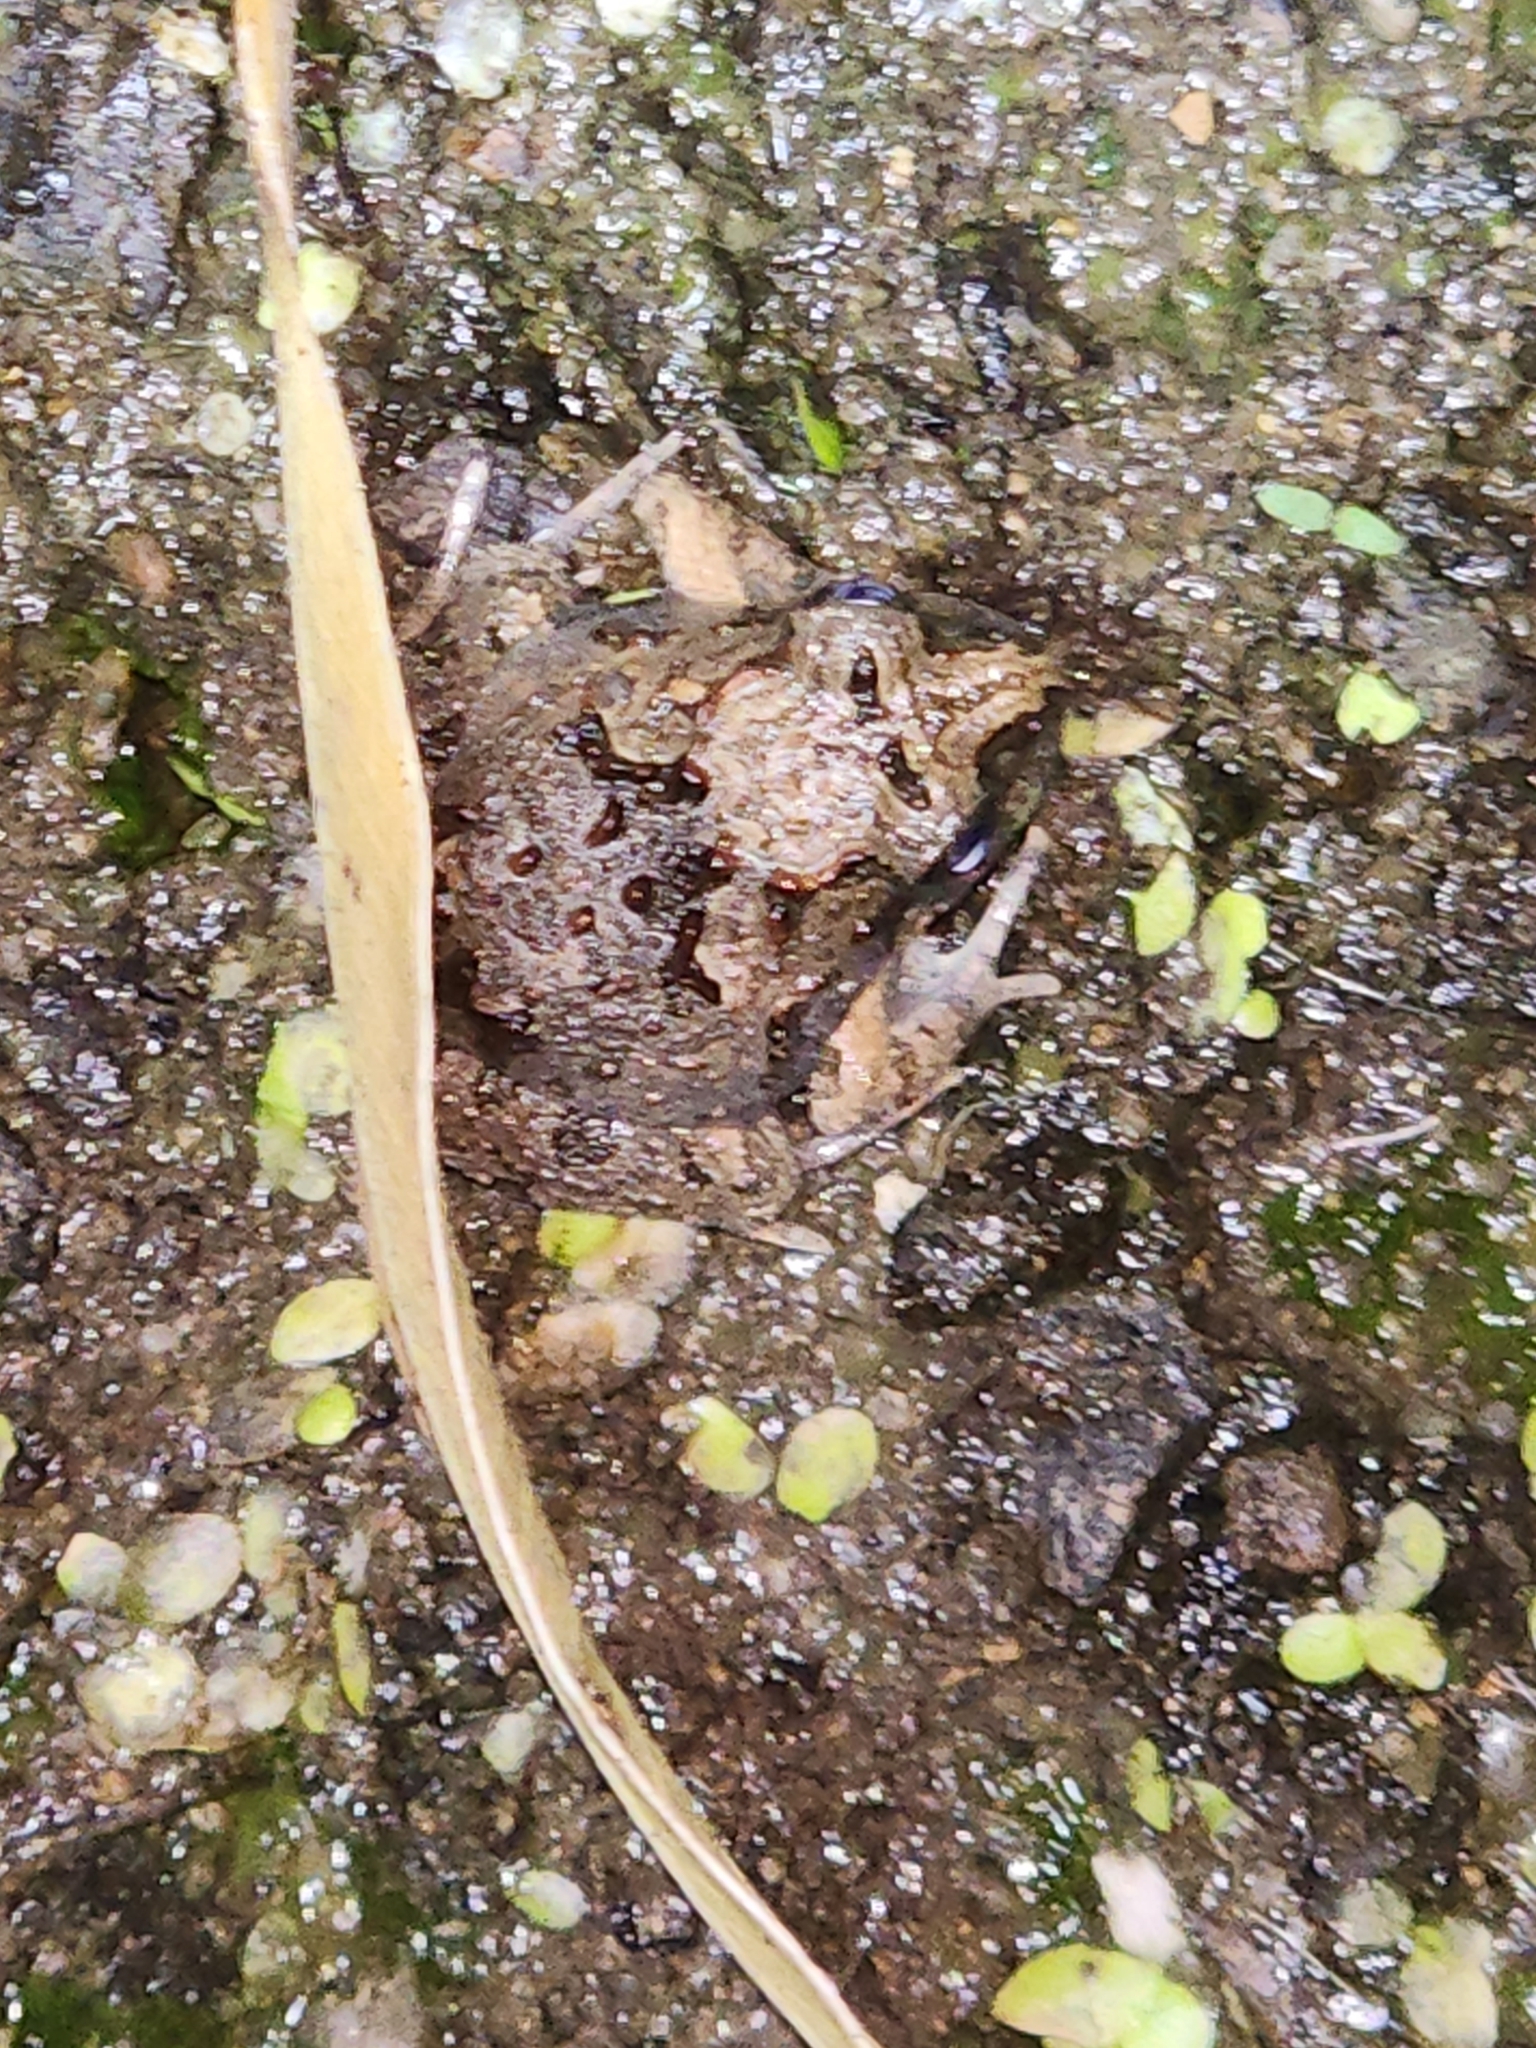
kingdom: Animalia
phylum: Chordata
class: Amphibia
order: Anura
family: Limnodynastidae
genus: Platyplectrum
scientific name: Platyplectrum ornatum
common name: Ornate burrowing frog
